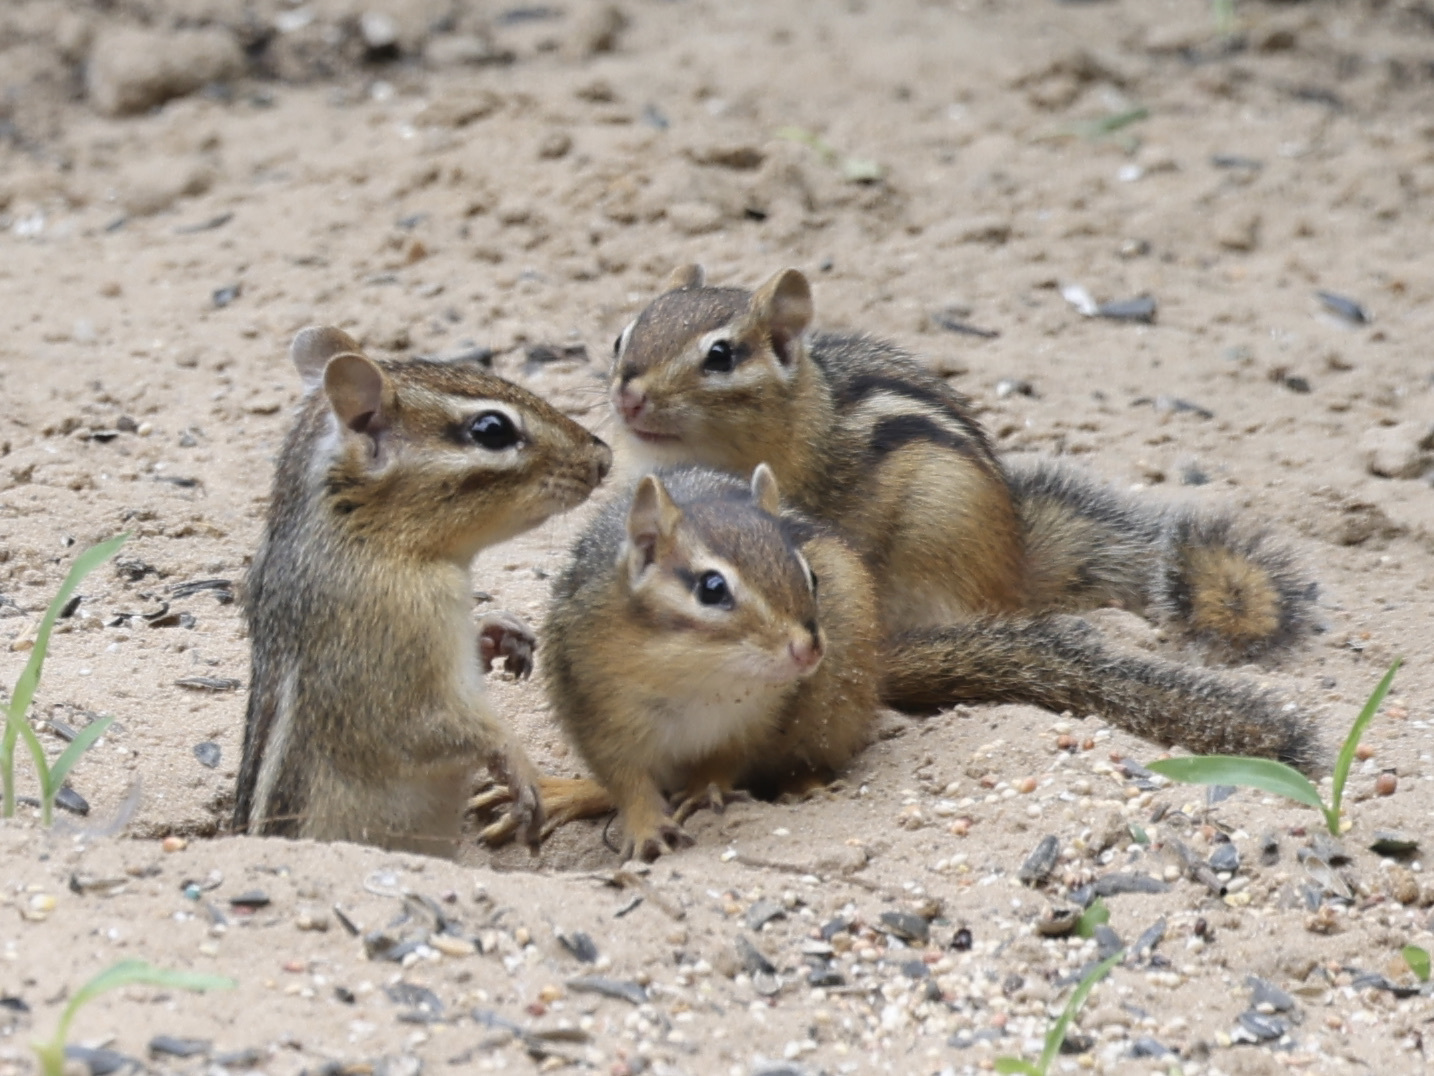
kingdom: Animalia
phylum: Chordata
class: Mammalia
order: Rodentia
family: Sciuridae
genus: Tamias
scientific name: Tamias striatus
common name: Eastern chipmunk
